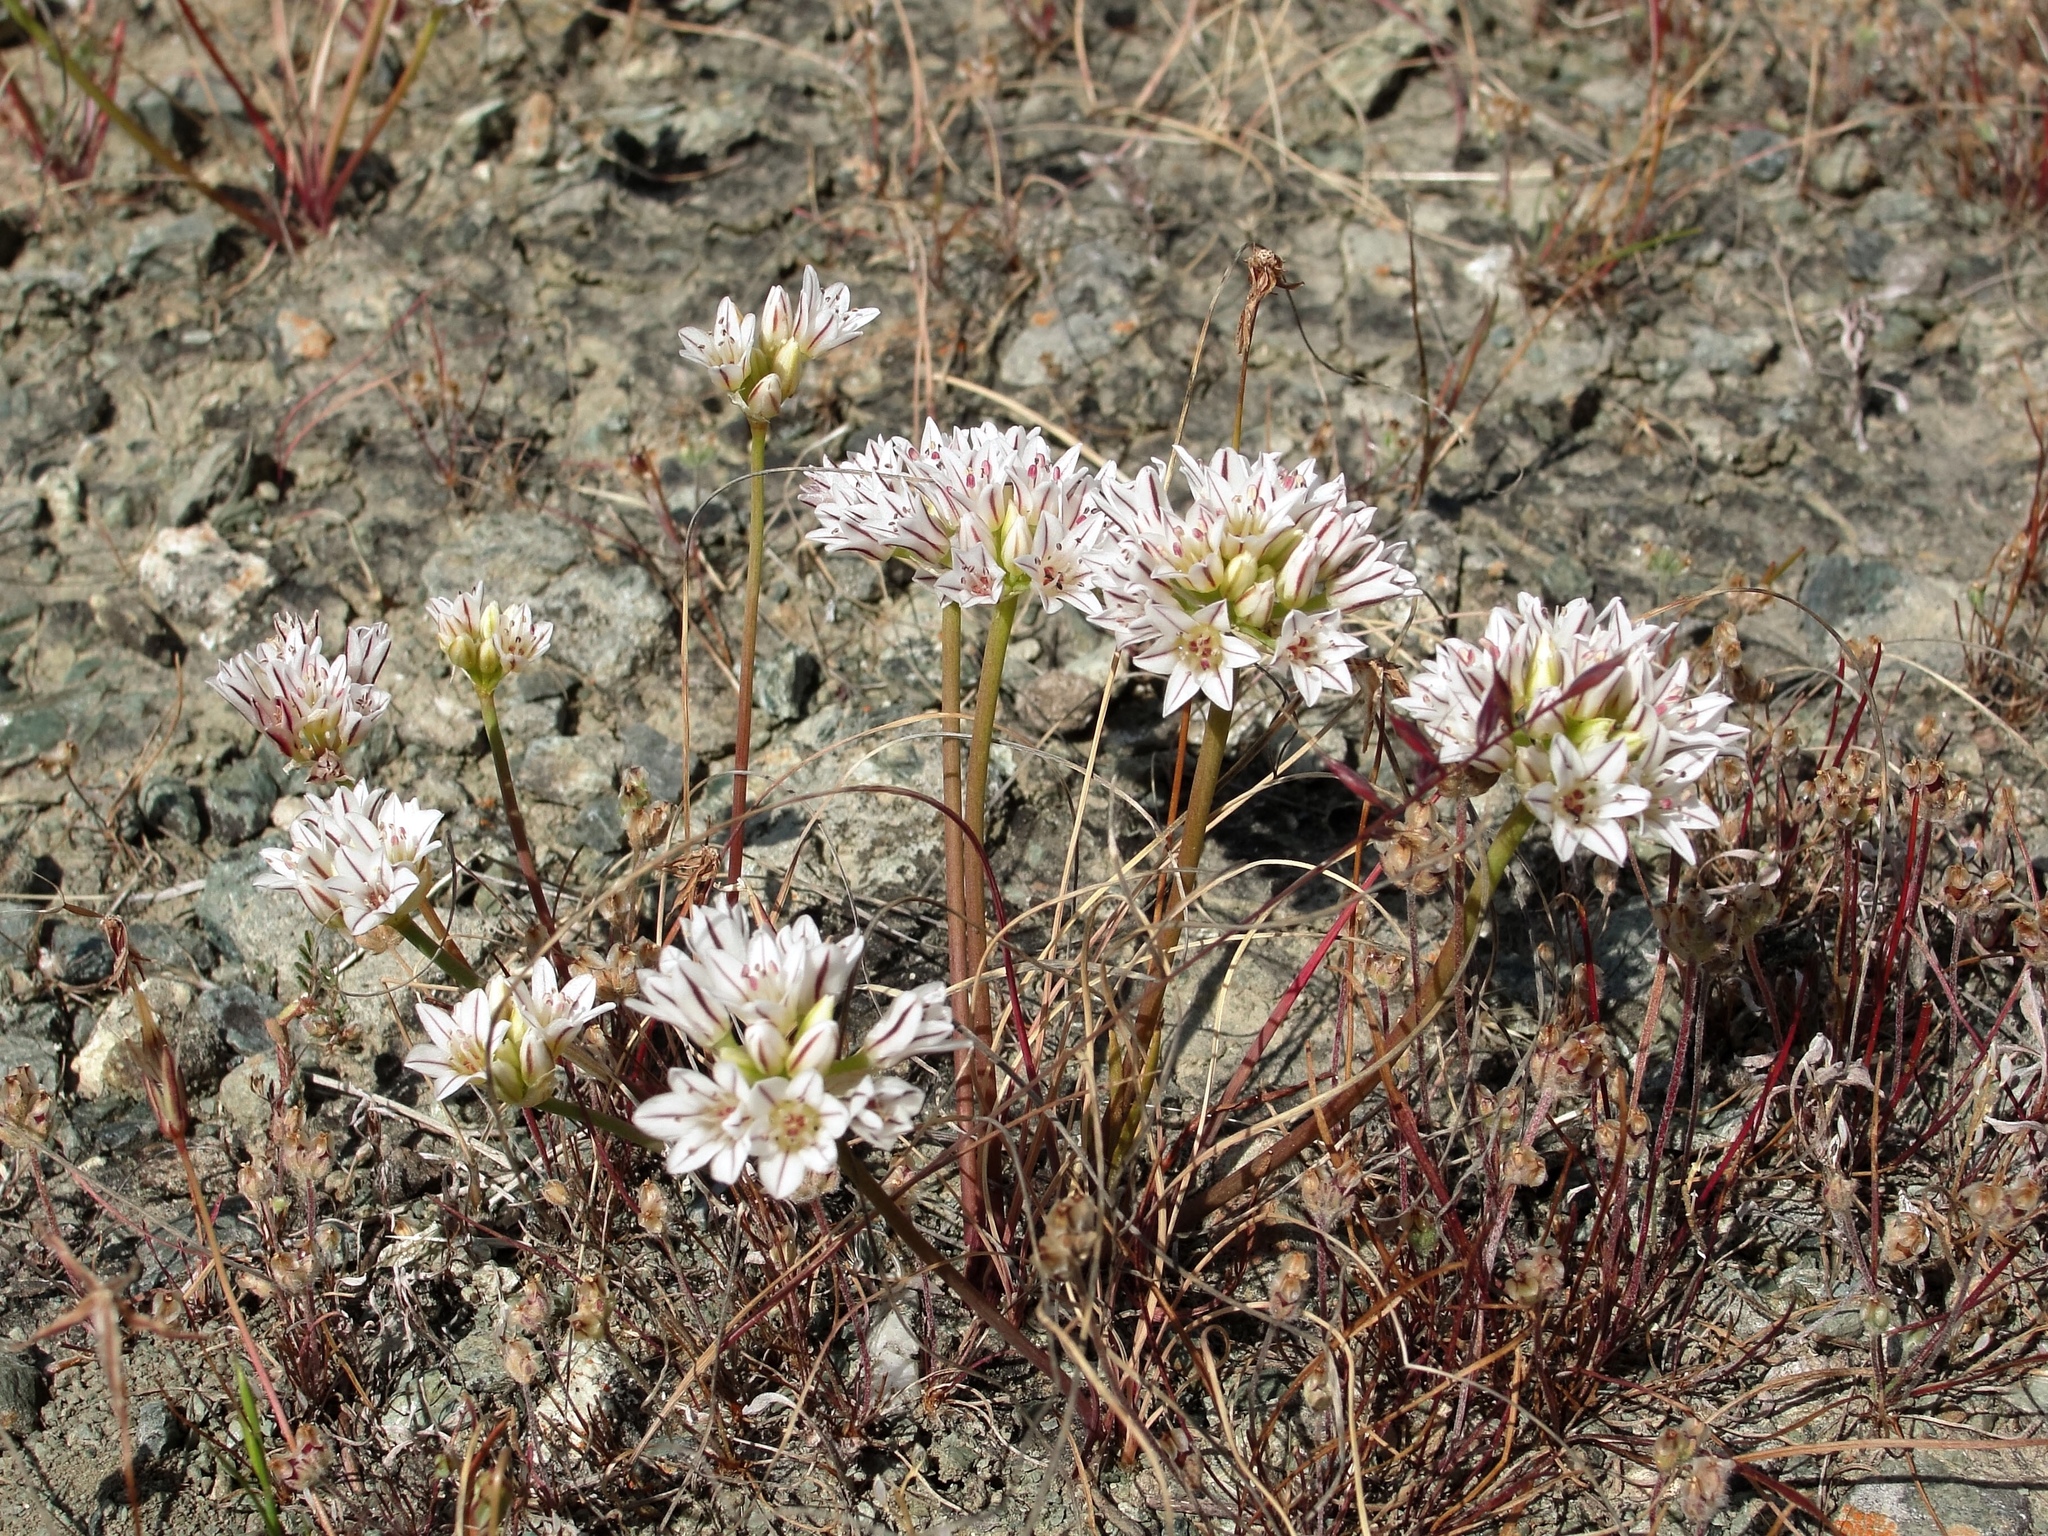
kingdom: Plantae
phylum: Tracheophyta
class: Liliopsida
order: Asparagales
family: Amaryllidaceae
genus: Allium
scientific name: Allium lacunosum
